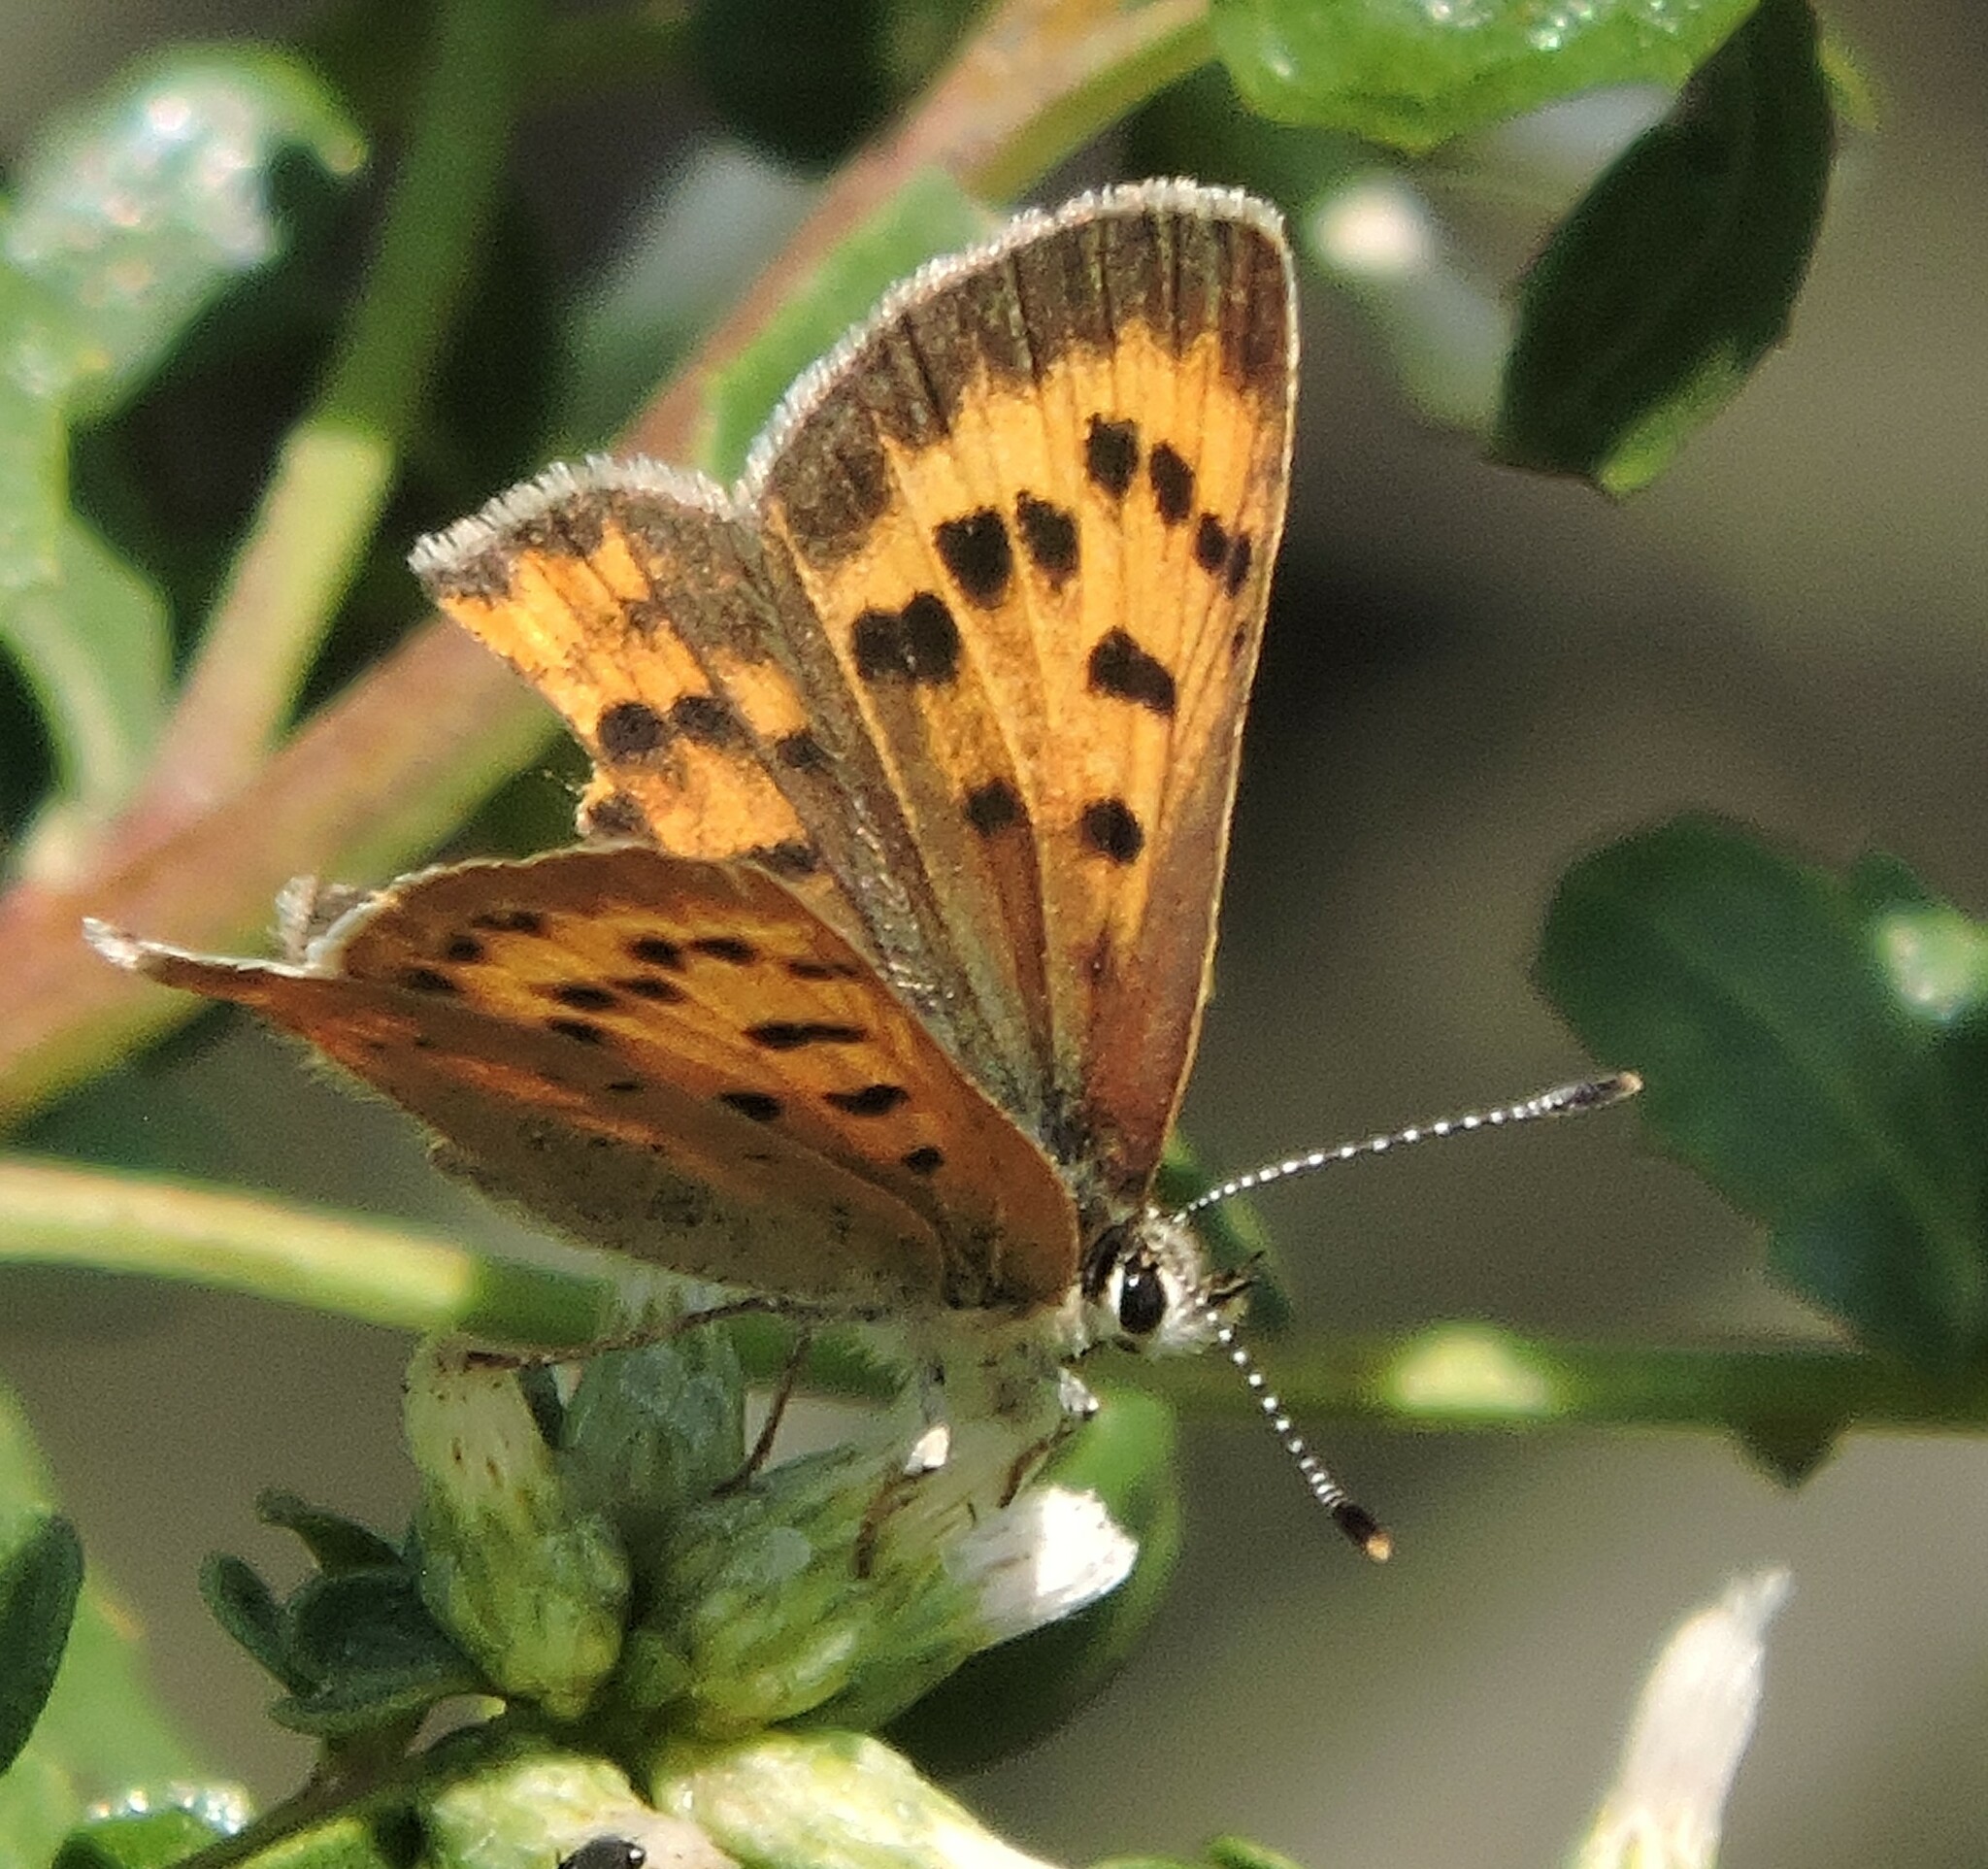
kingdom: Animalia
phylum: Arthropoda
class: Insecta
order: Lepidoptera
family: Lycaenidae
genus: Tharsalea
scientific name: Tharsalea helloides
